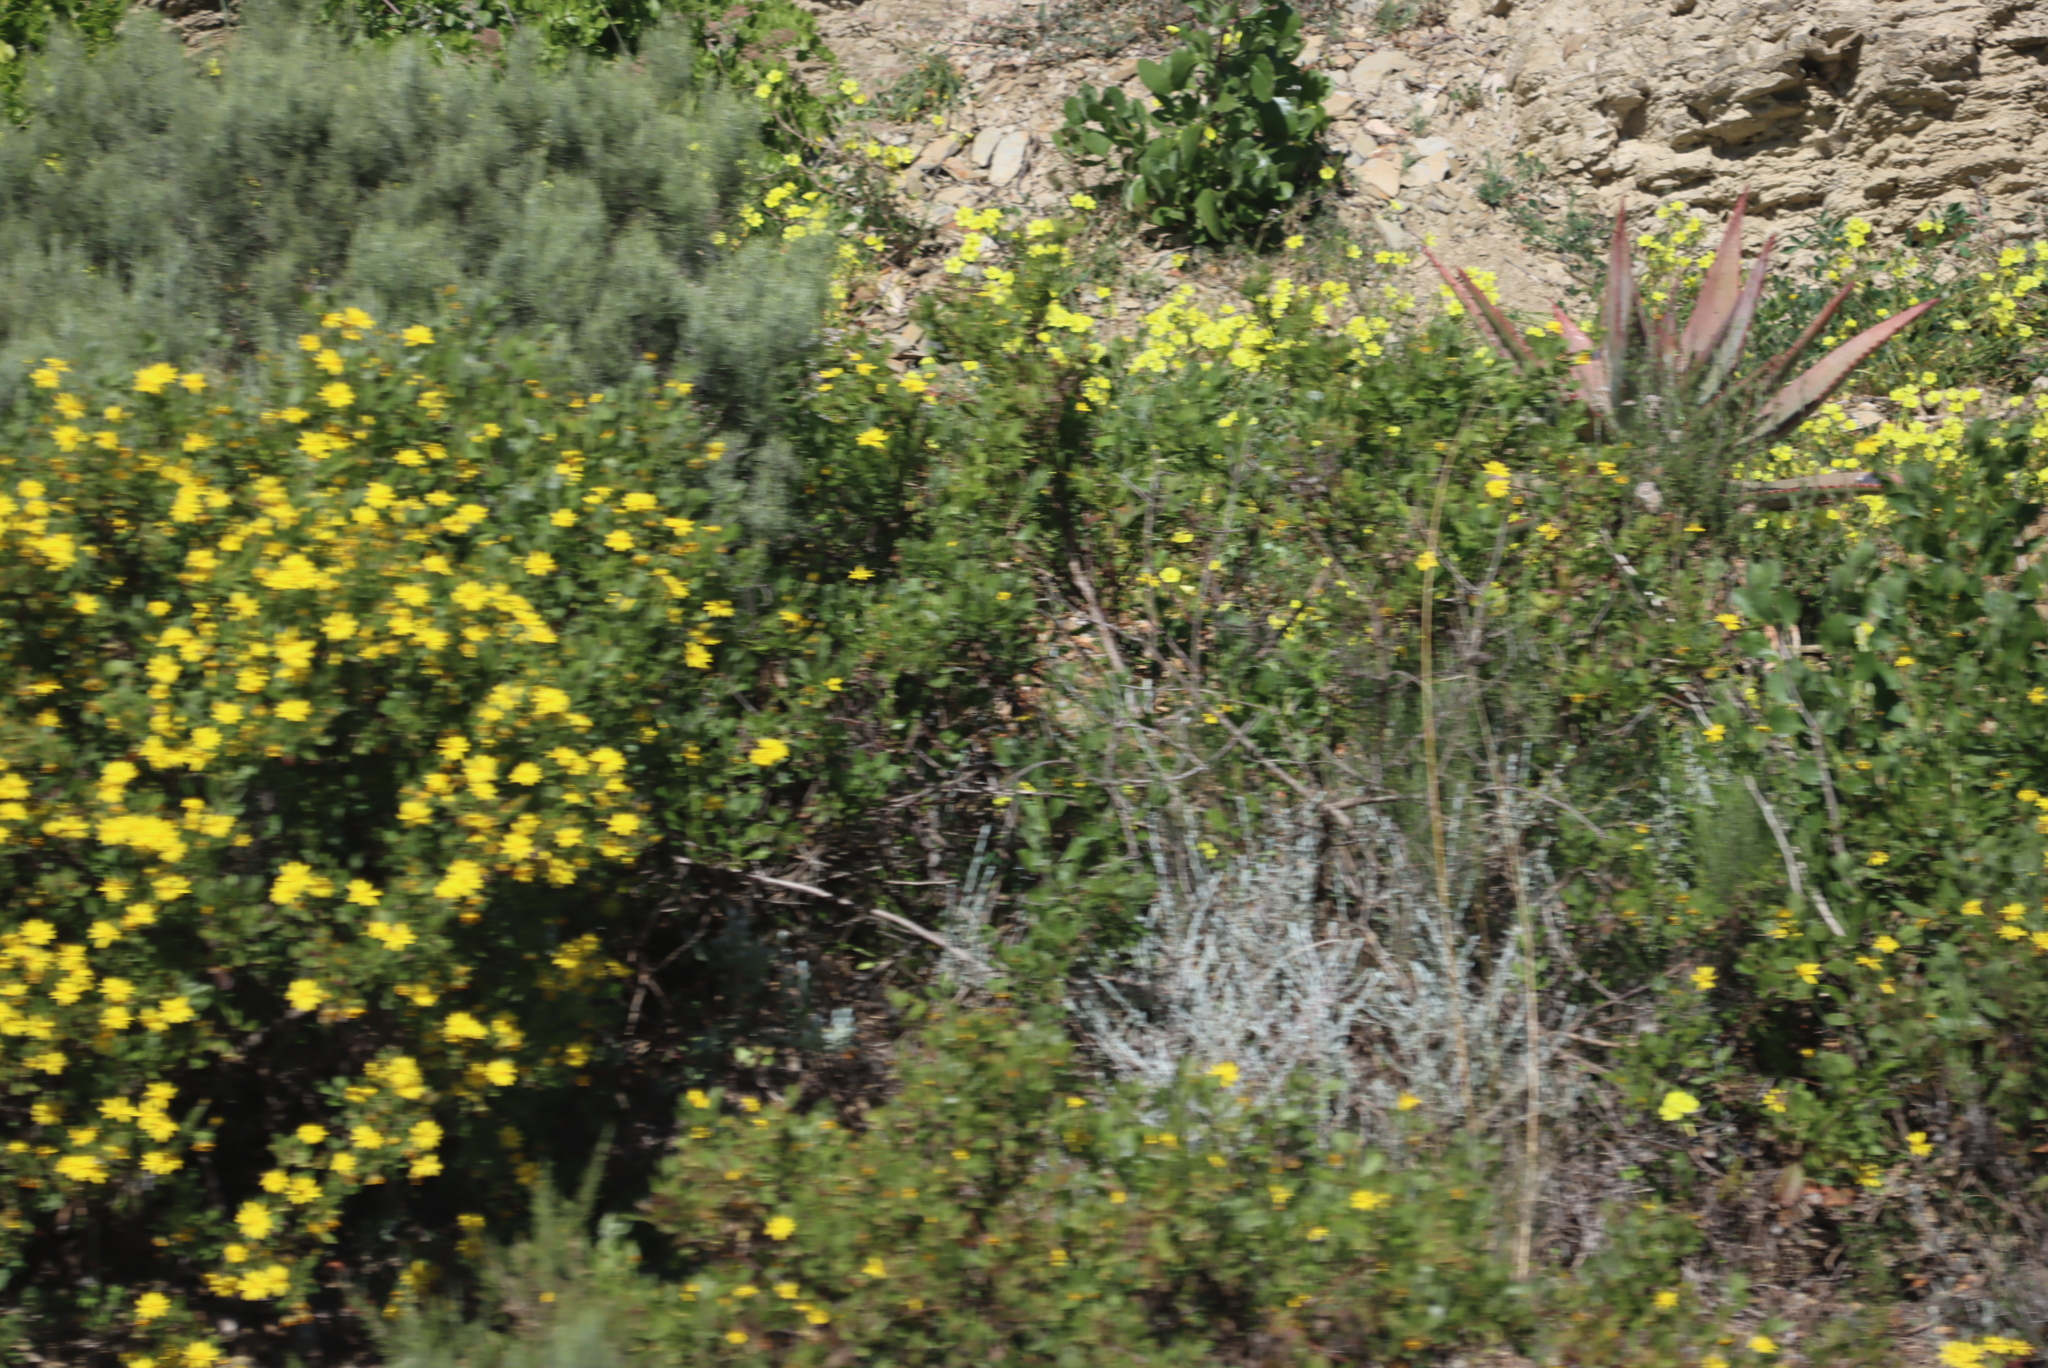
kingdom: Plantae
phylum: Tracheophyta
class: Magnoliopsida
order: Asterales
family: Asteraceae
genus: Osteospermum
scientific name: Osteospermum moniliferum
